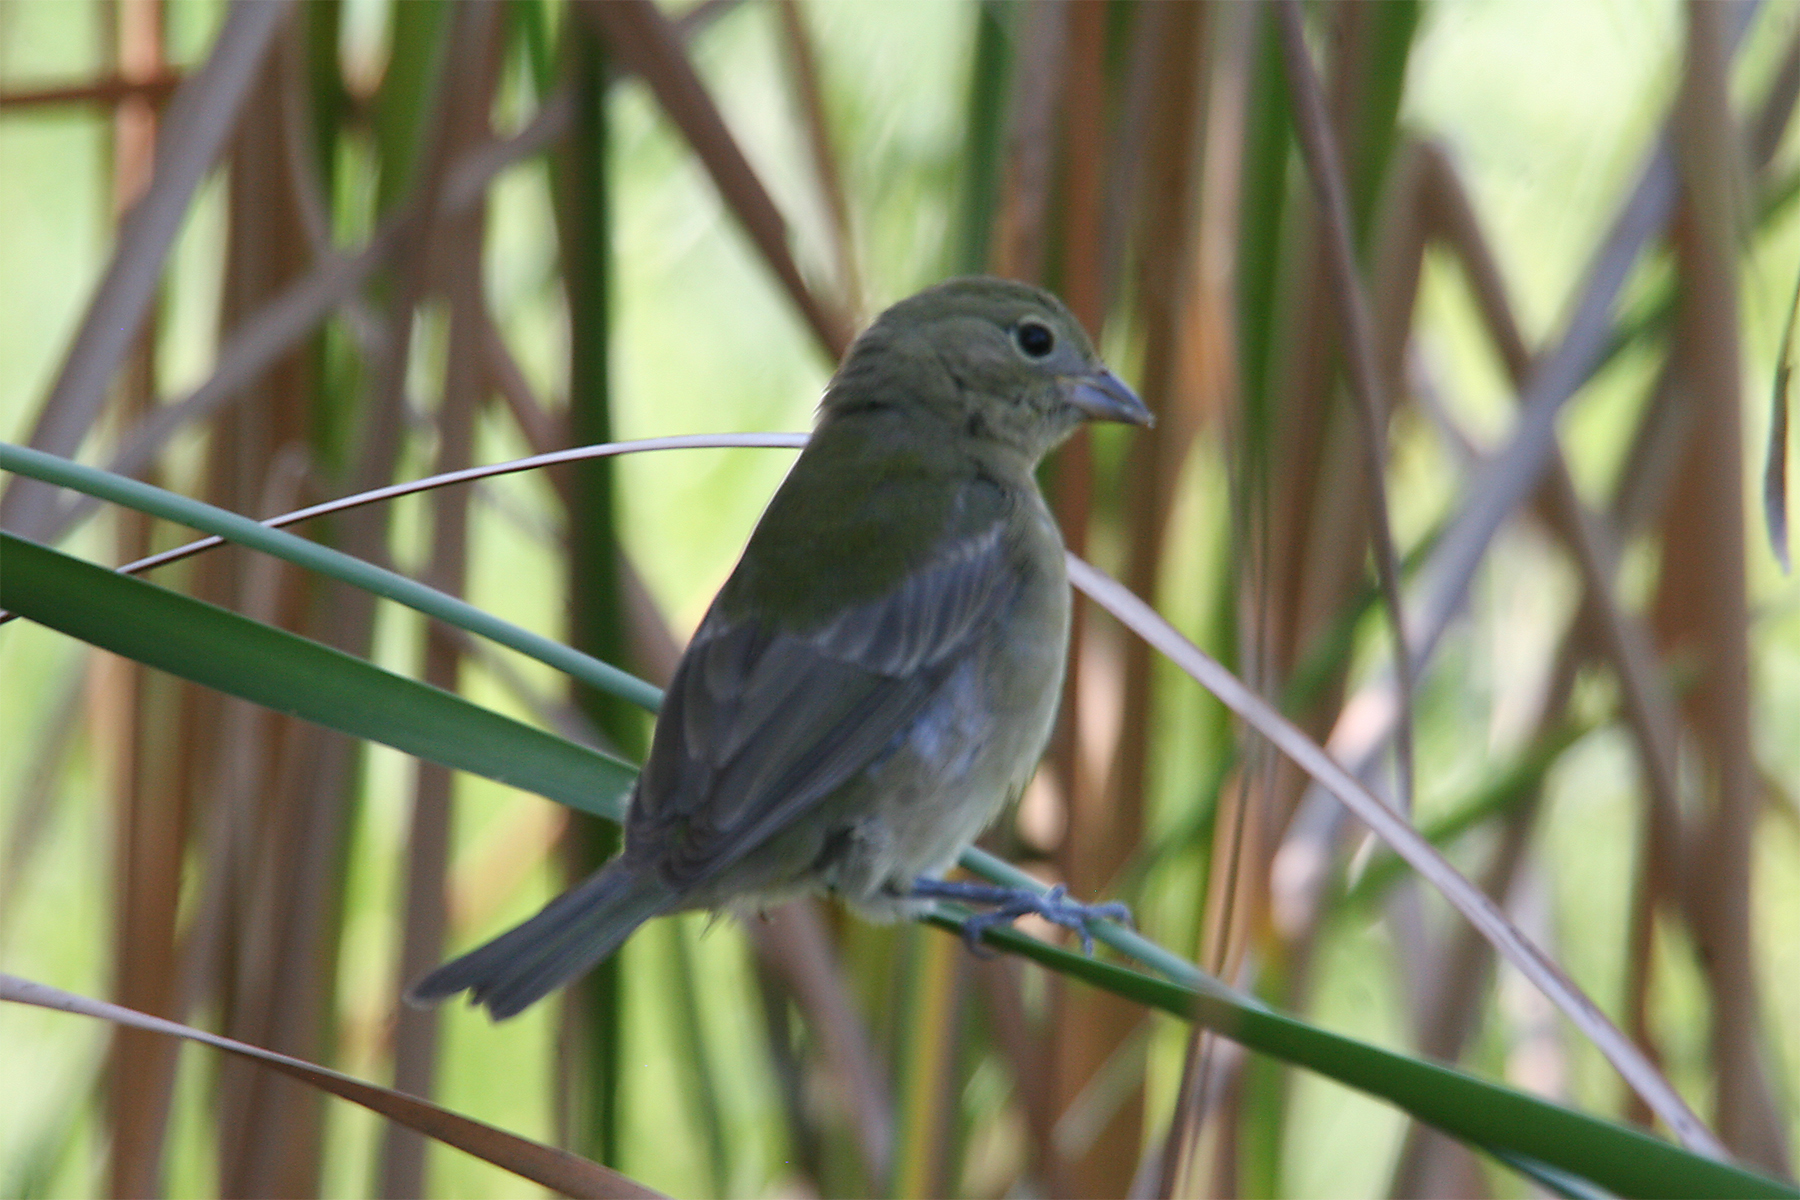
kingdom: Animalia
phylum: Chordata
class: Aves
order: Passeriformes
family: Cardinalidae
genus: Passerina
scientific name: Passerina ciris
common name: Painted bunting
